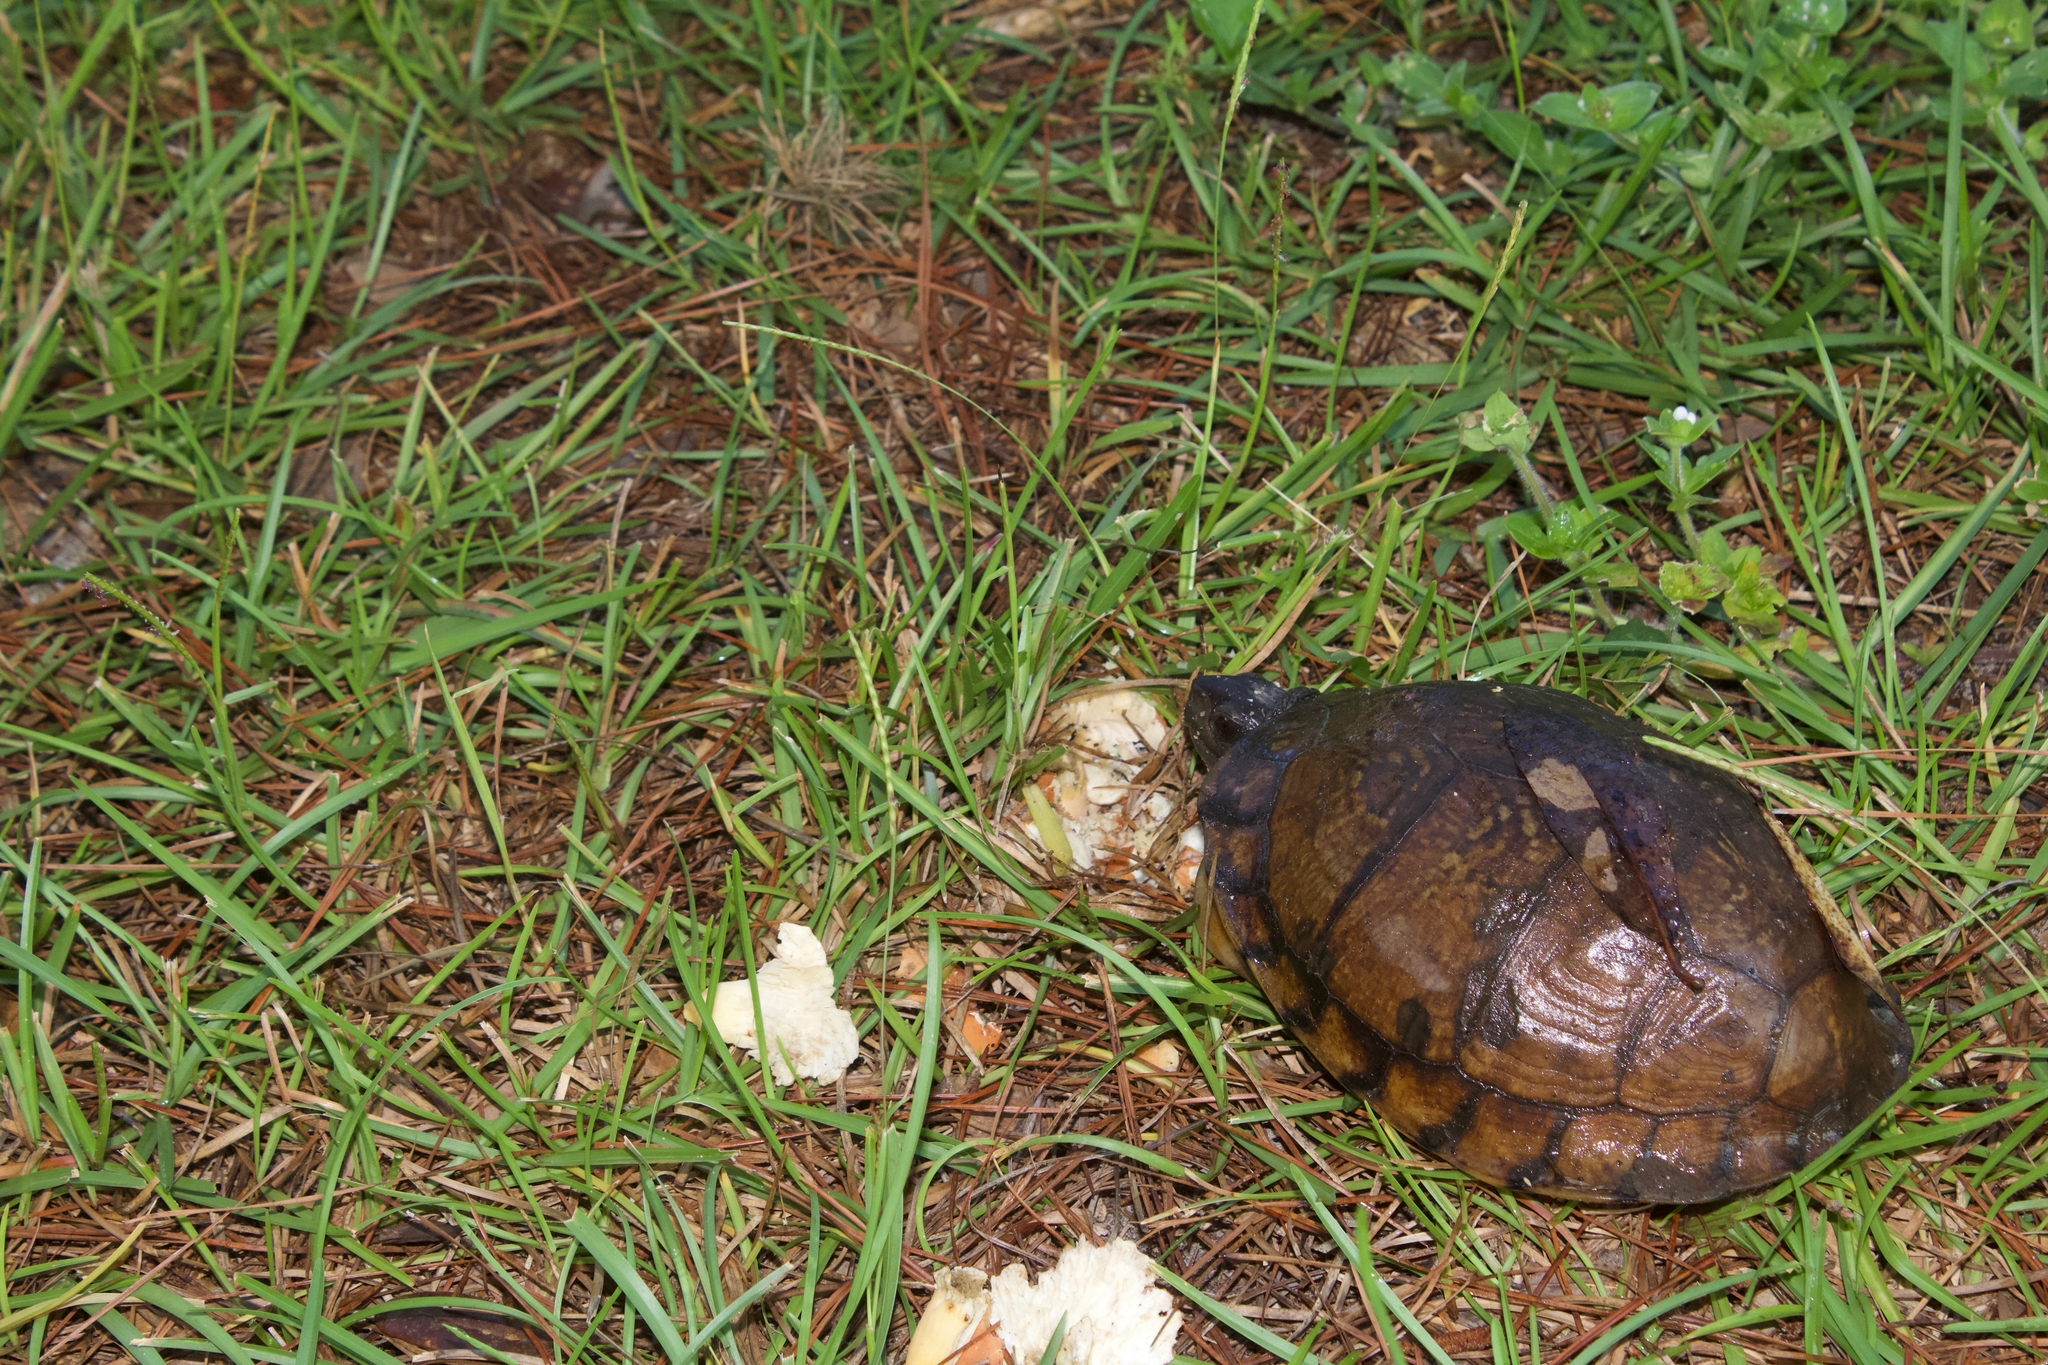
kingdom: Animalia
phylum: Chordata
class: Testudines
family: Emydidae
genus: Terrapene
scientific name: Terrapene carolina
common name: Common box turtle
